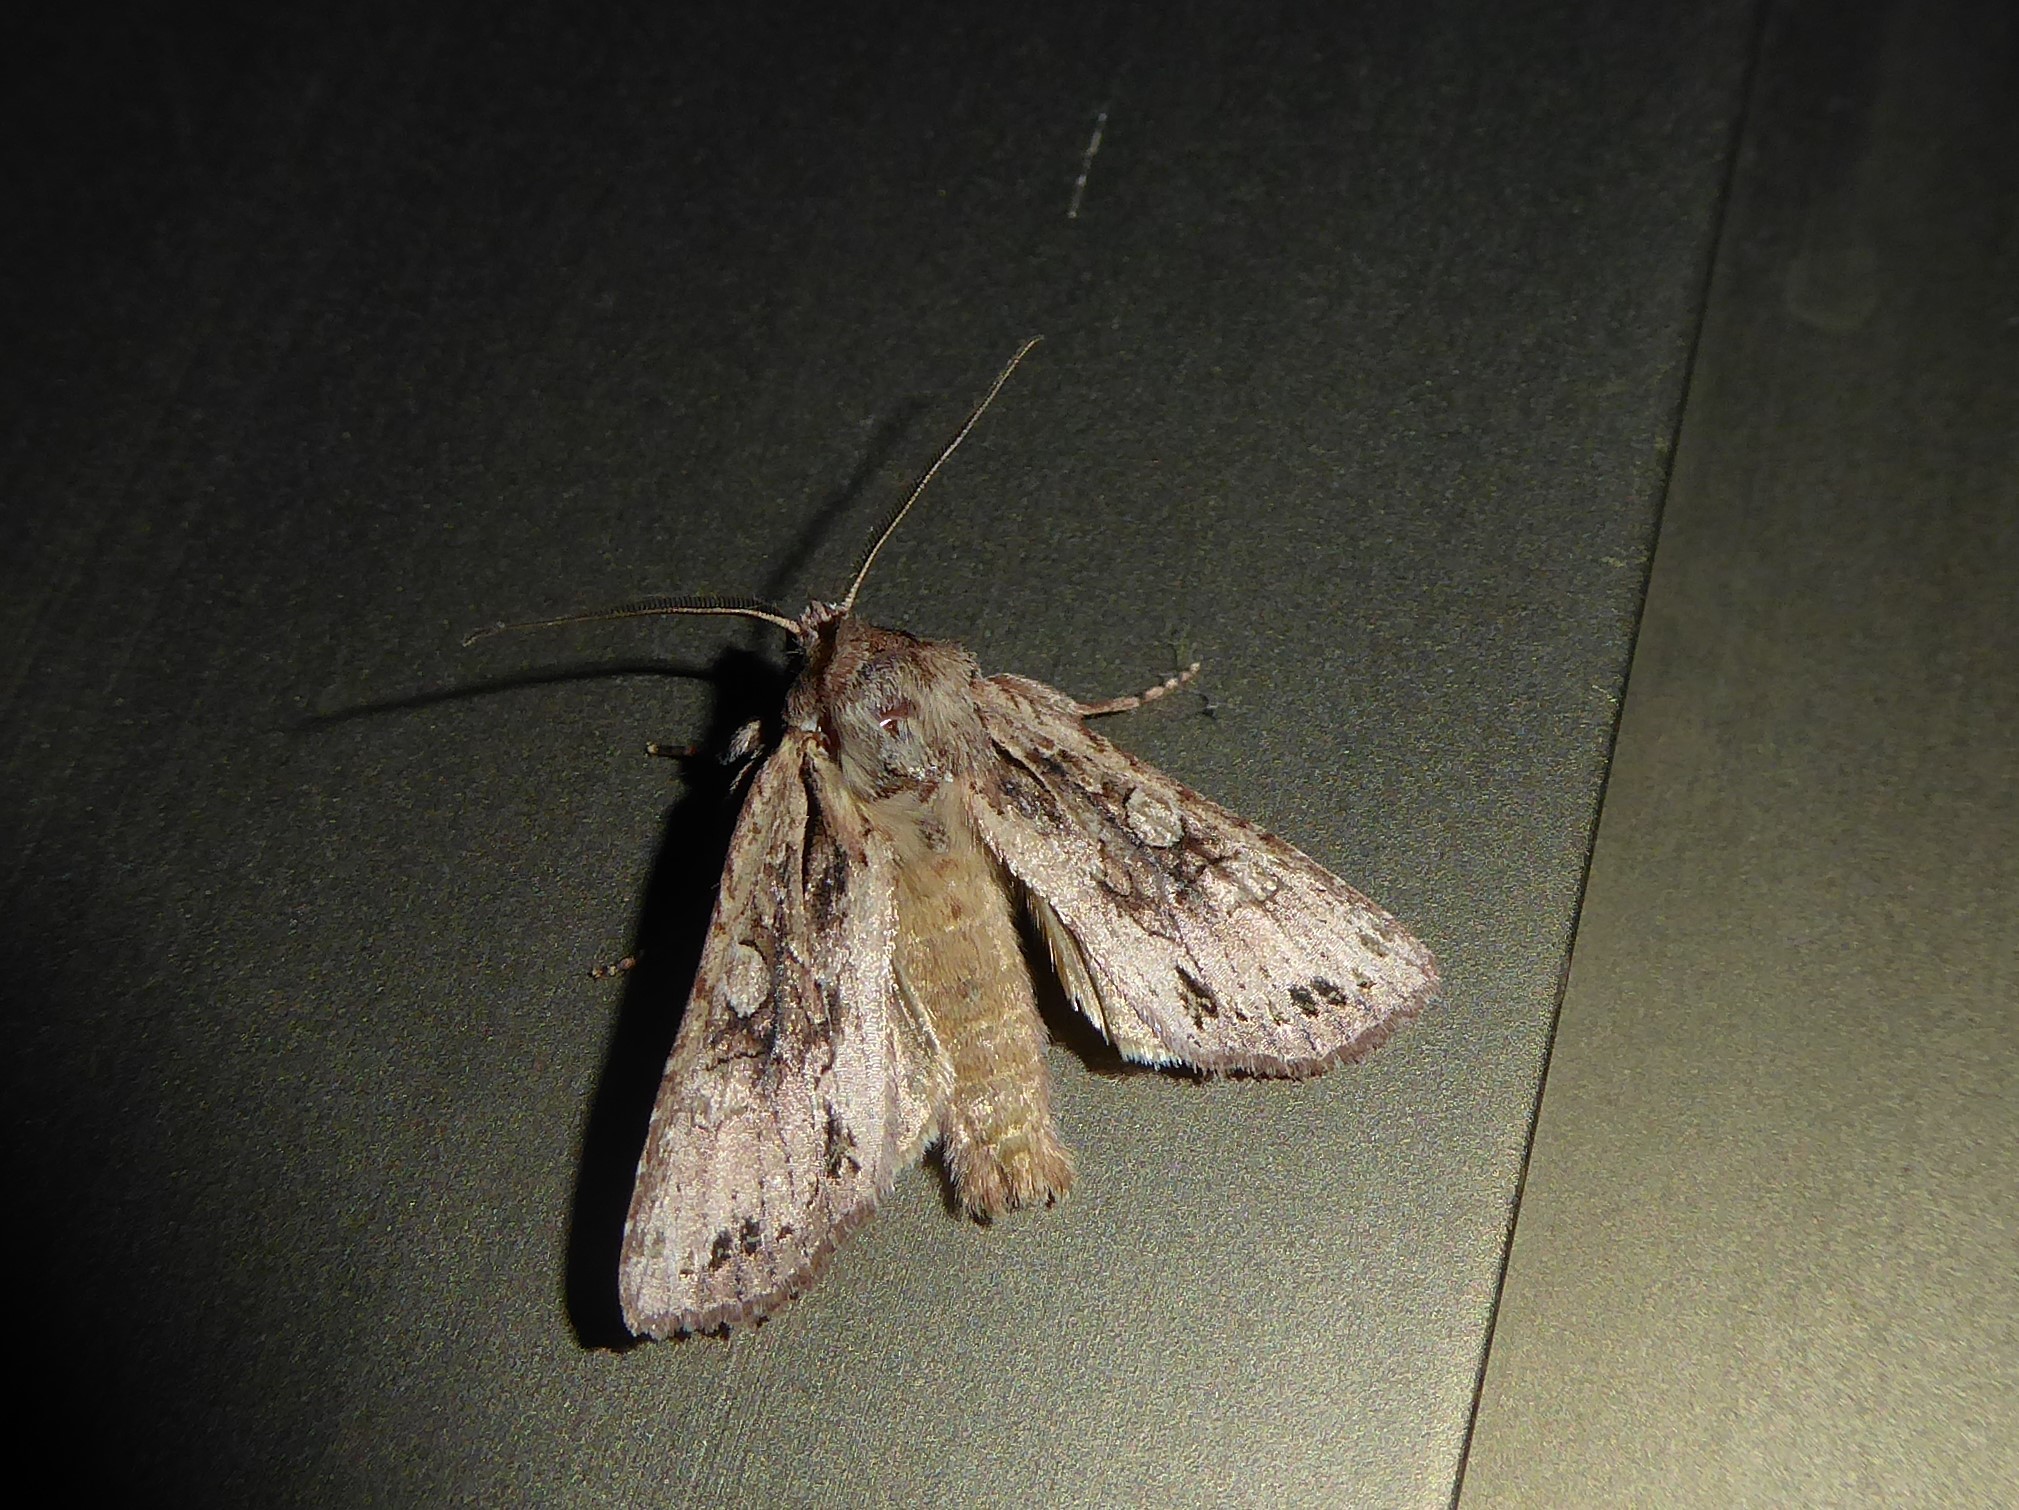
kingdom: Animalia
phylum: Arthropoda
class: Insecta
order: Lepidoptera
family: Noctuidae
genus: Ichneutica
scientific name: Ichneutica
